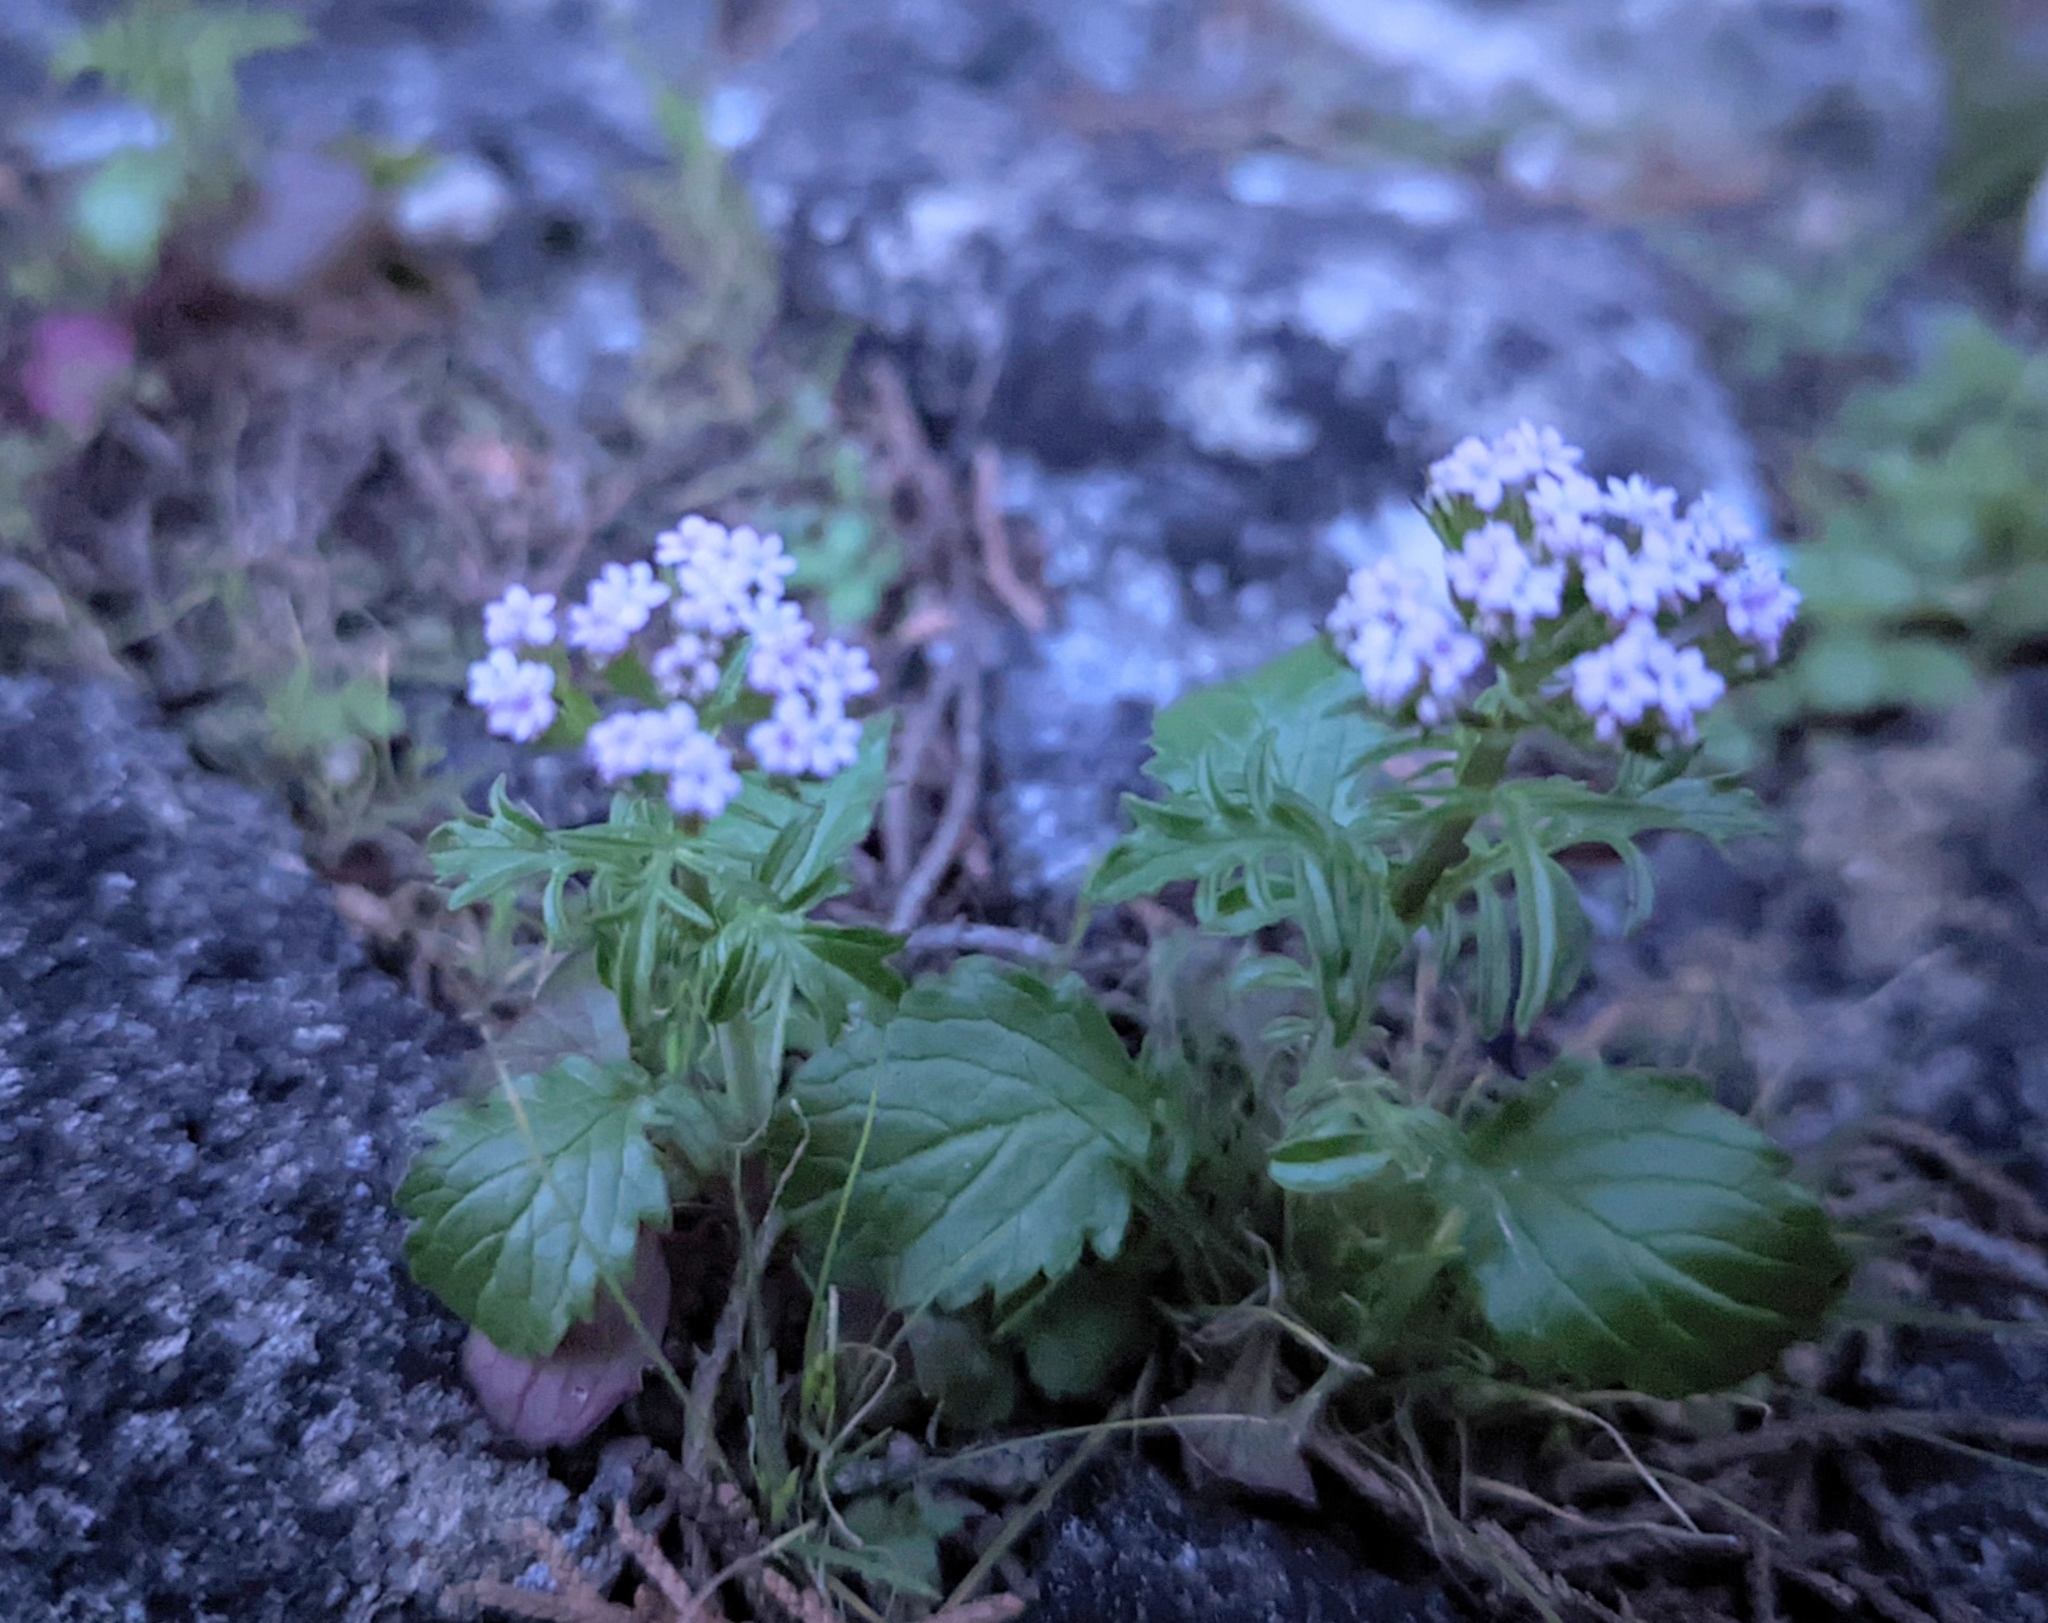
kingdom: Plantae
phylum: Tracheophyta
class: Magnoliopsida
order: Dipsacales
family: Caprifoliaceae
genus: Centranthus
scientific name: Centranthus calcitrapae
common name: Annual valerian
